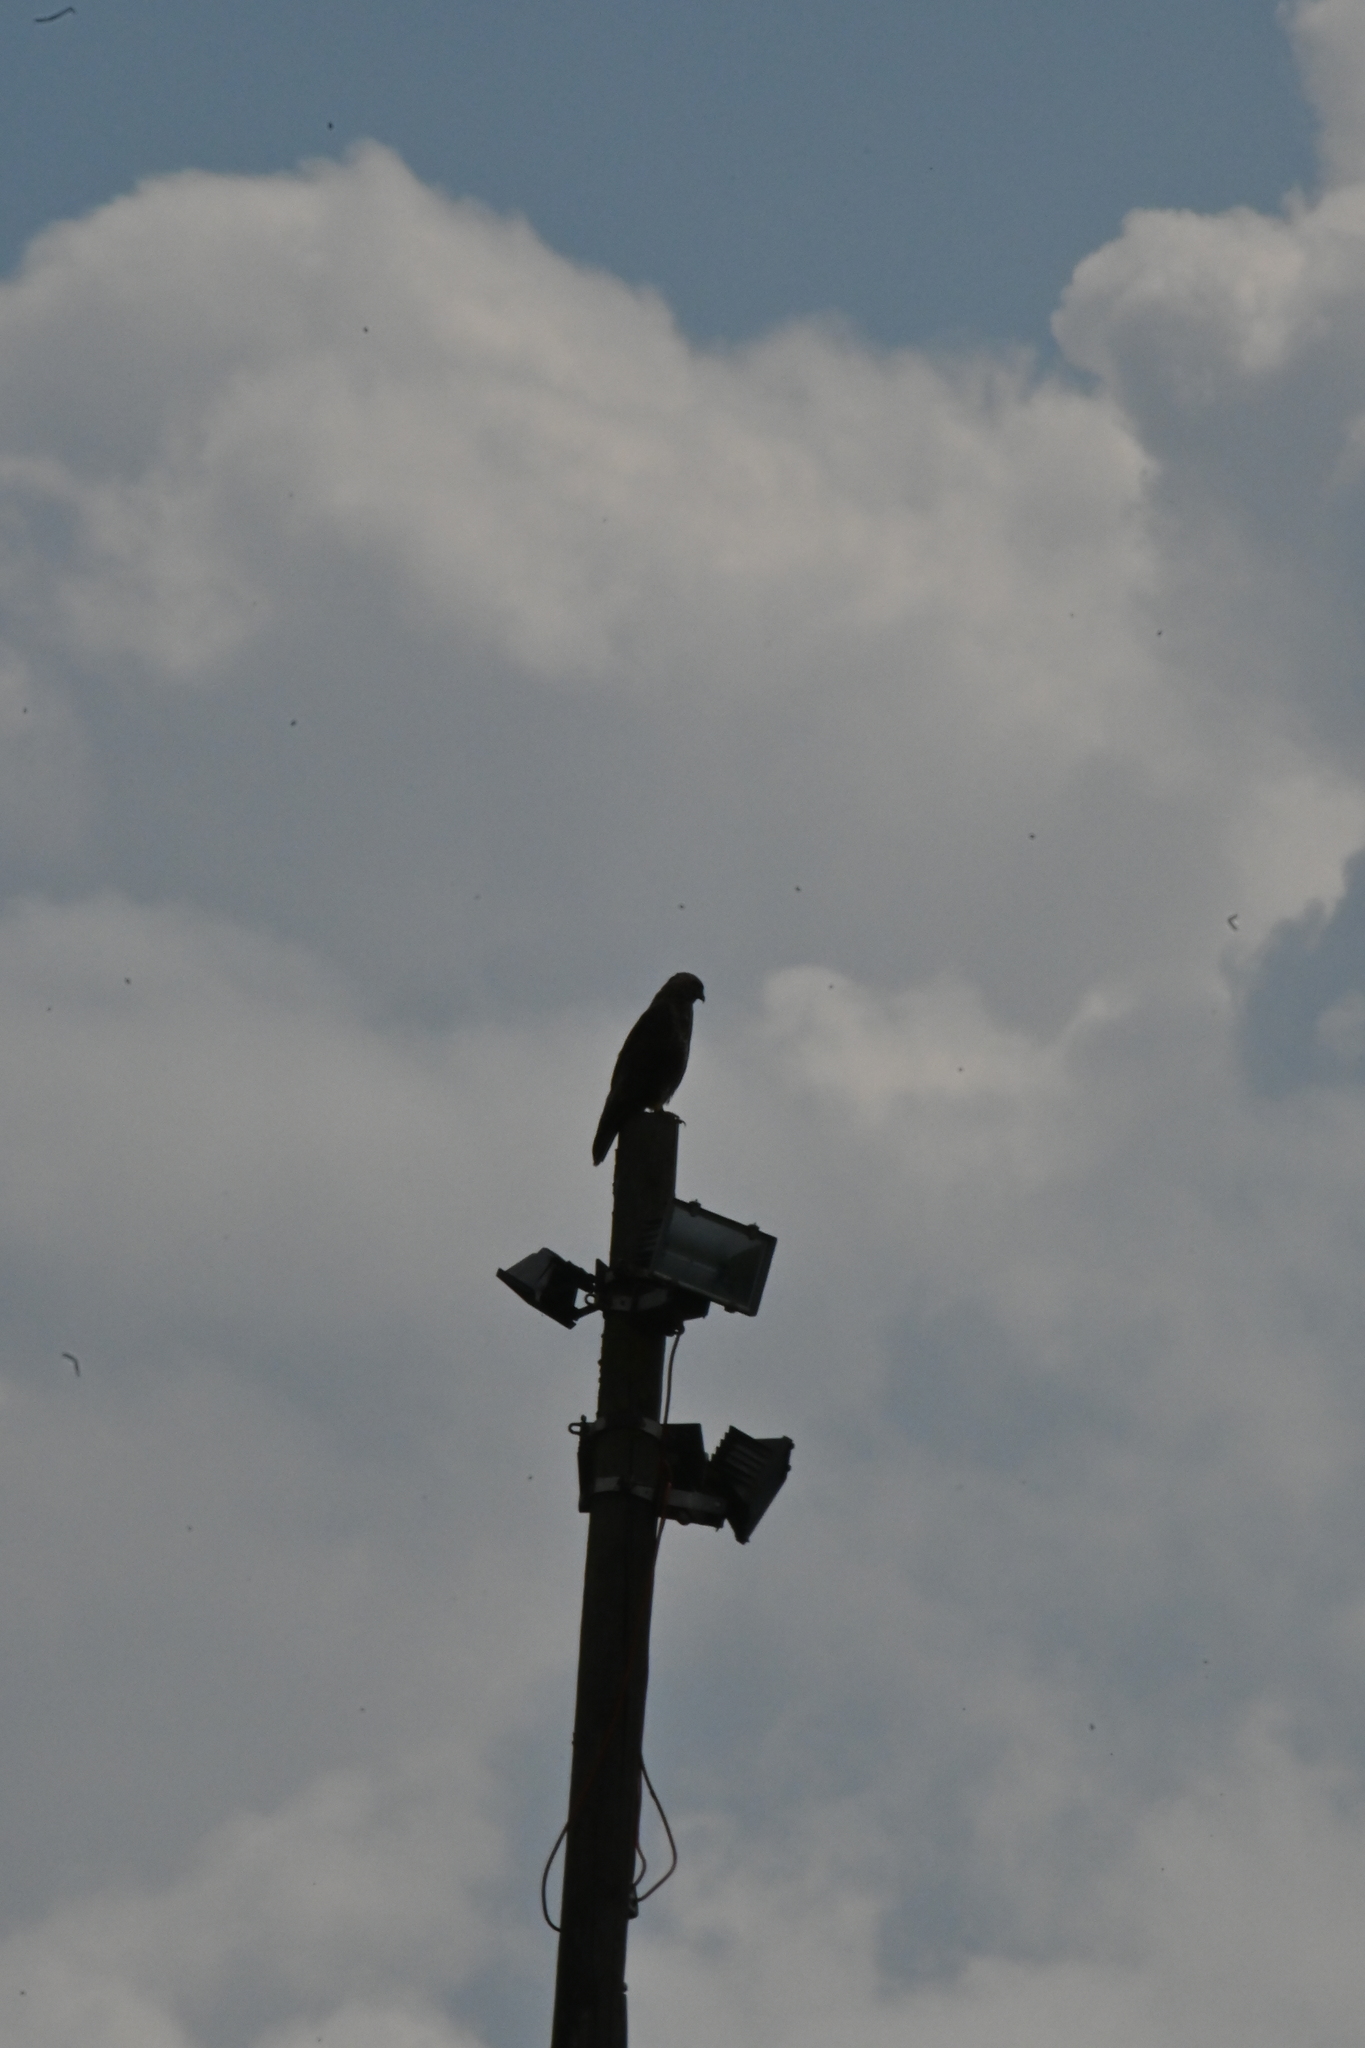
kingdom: Animalia
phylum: Chordata
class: Aves
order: Accipitriformes
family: Accipitridae
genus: Buteo
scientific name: Buteo buteo
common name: Common buzzard
